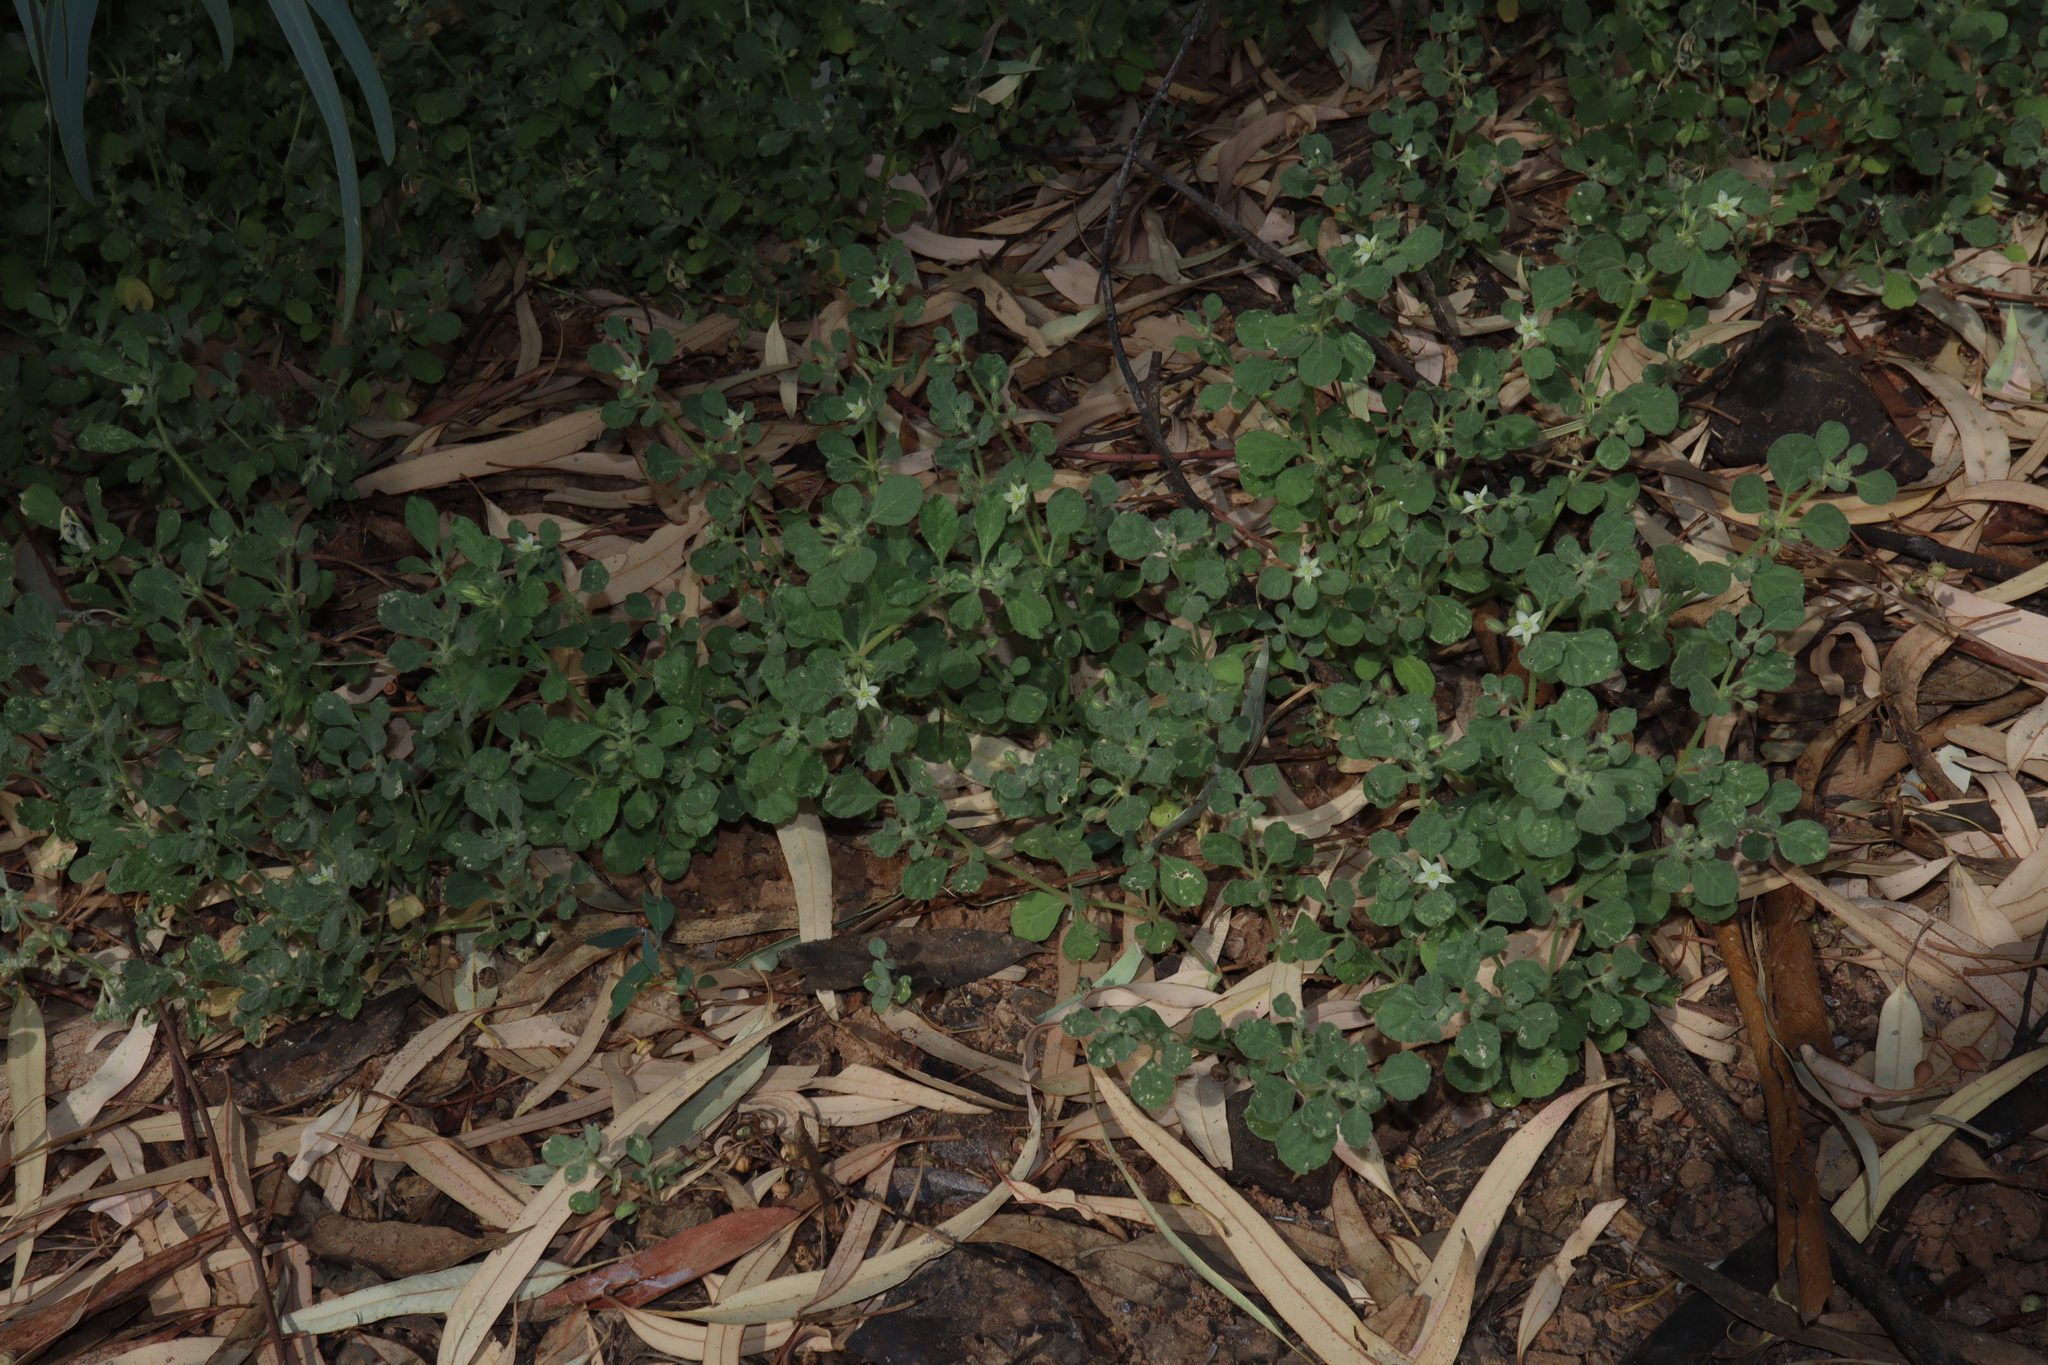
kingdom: Plantae
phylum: Tracheophyta
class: Magnoliopsida
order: Caryophyllales
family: Molluginaceae
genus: Glinus
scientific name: Glinus lotoides
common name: Lotus sweetjuice
